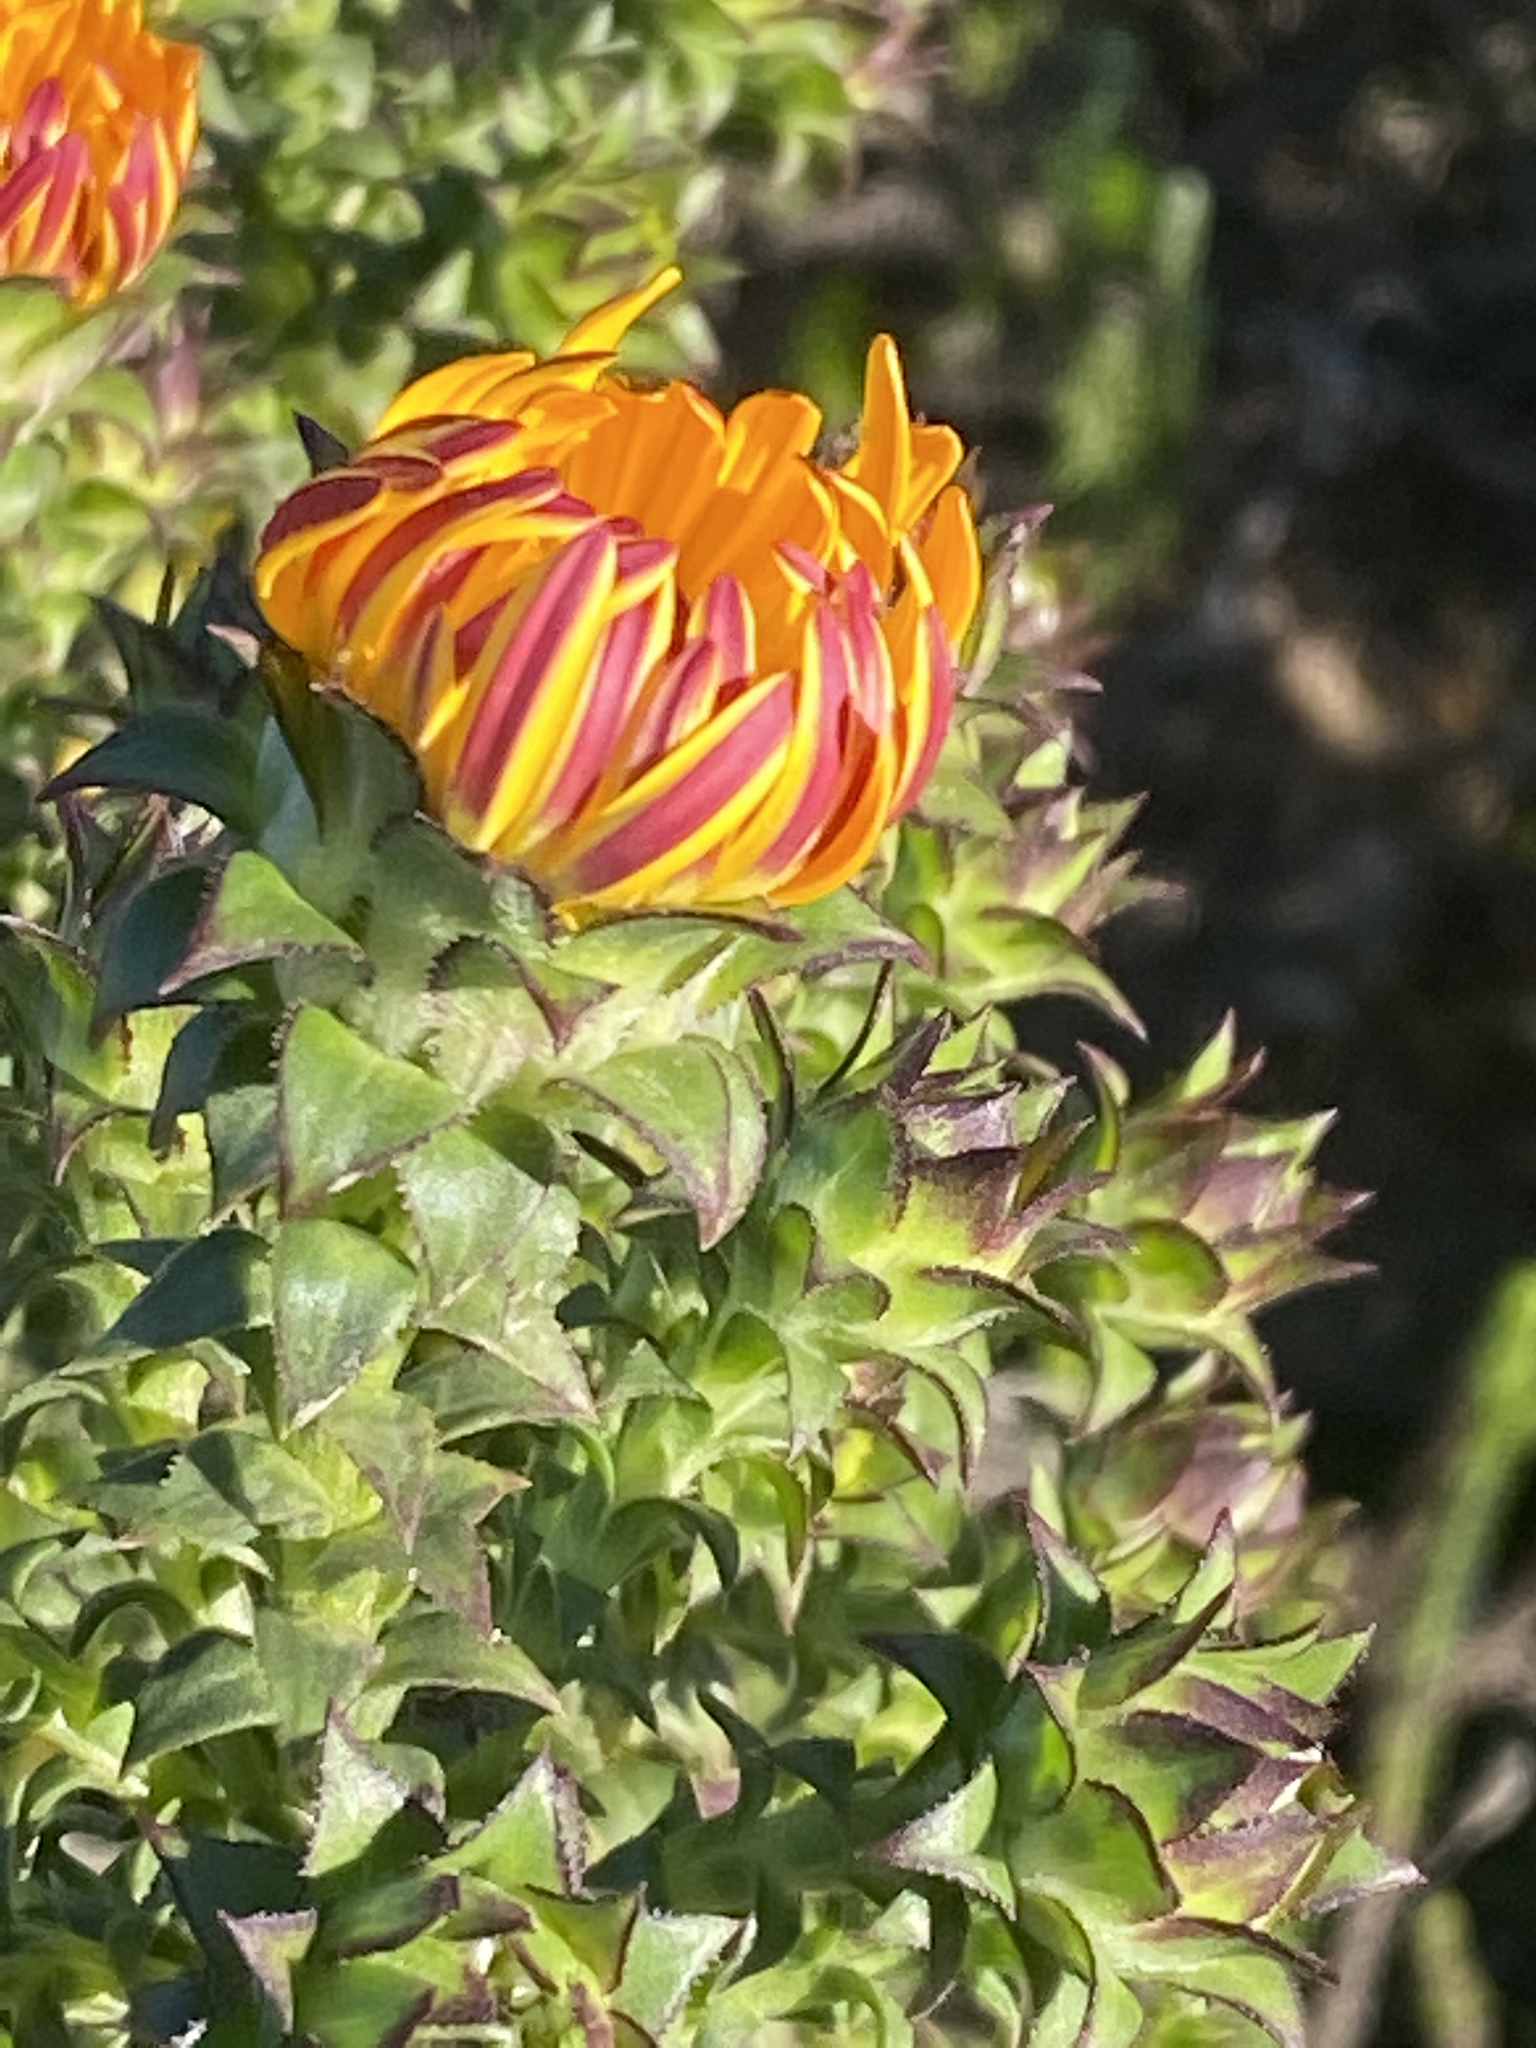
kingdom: Plantae
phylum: Tracheophyta
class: Magnoliopsida
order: Asterales
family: Asteraceae
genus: Oedera
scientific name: Oedera imbricata
